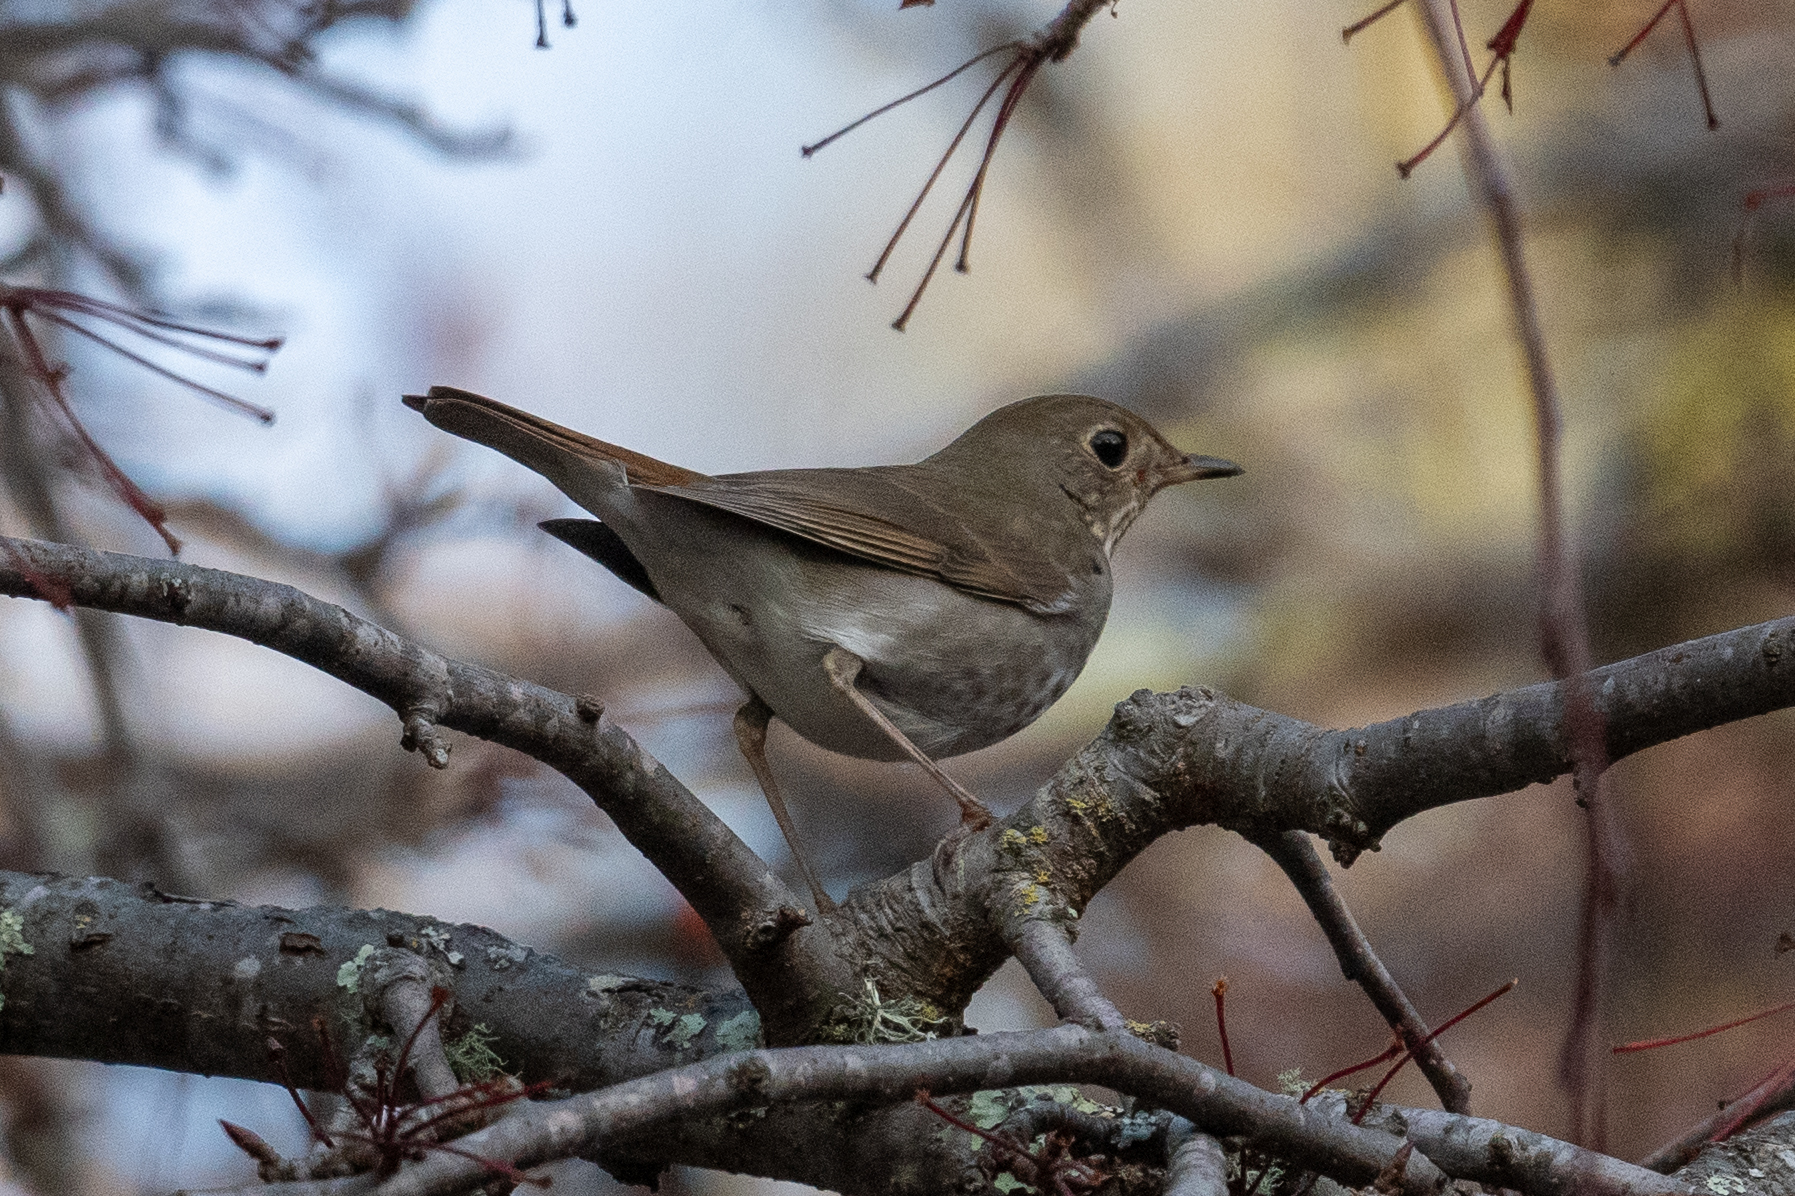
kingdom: Animalia
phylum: Chordata
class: Aves
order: Passeriformes
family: Turdidae
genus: Catharus
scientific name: Catharus guttatus
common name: Hermit thrush
